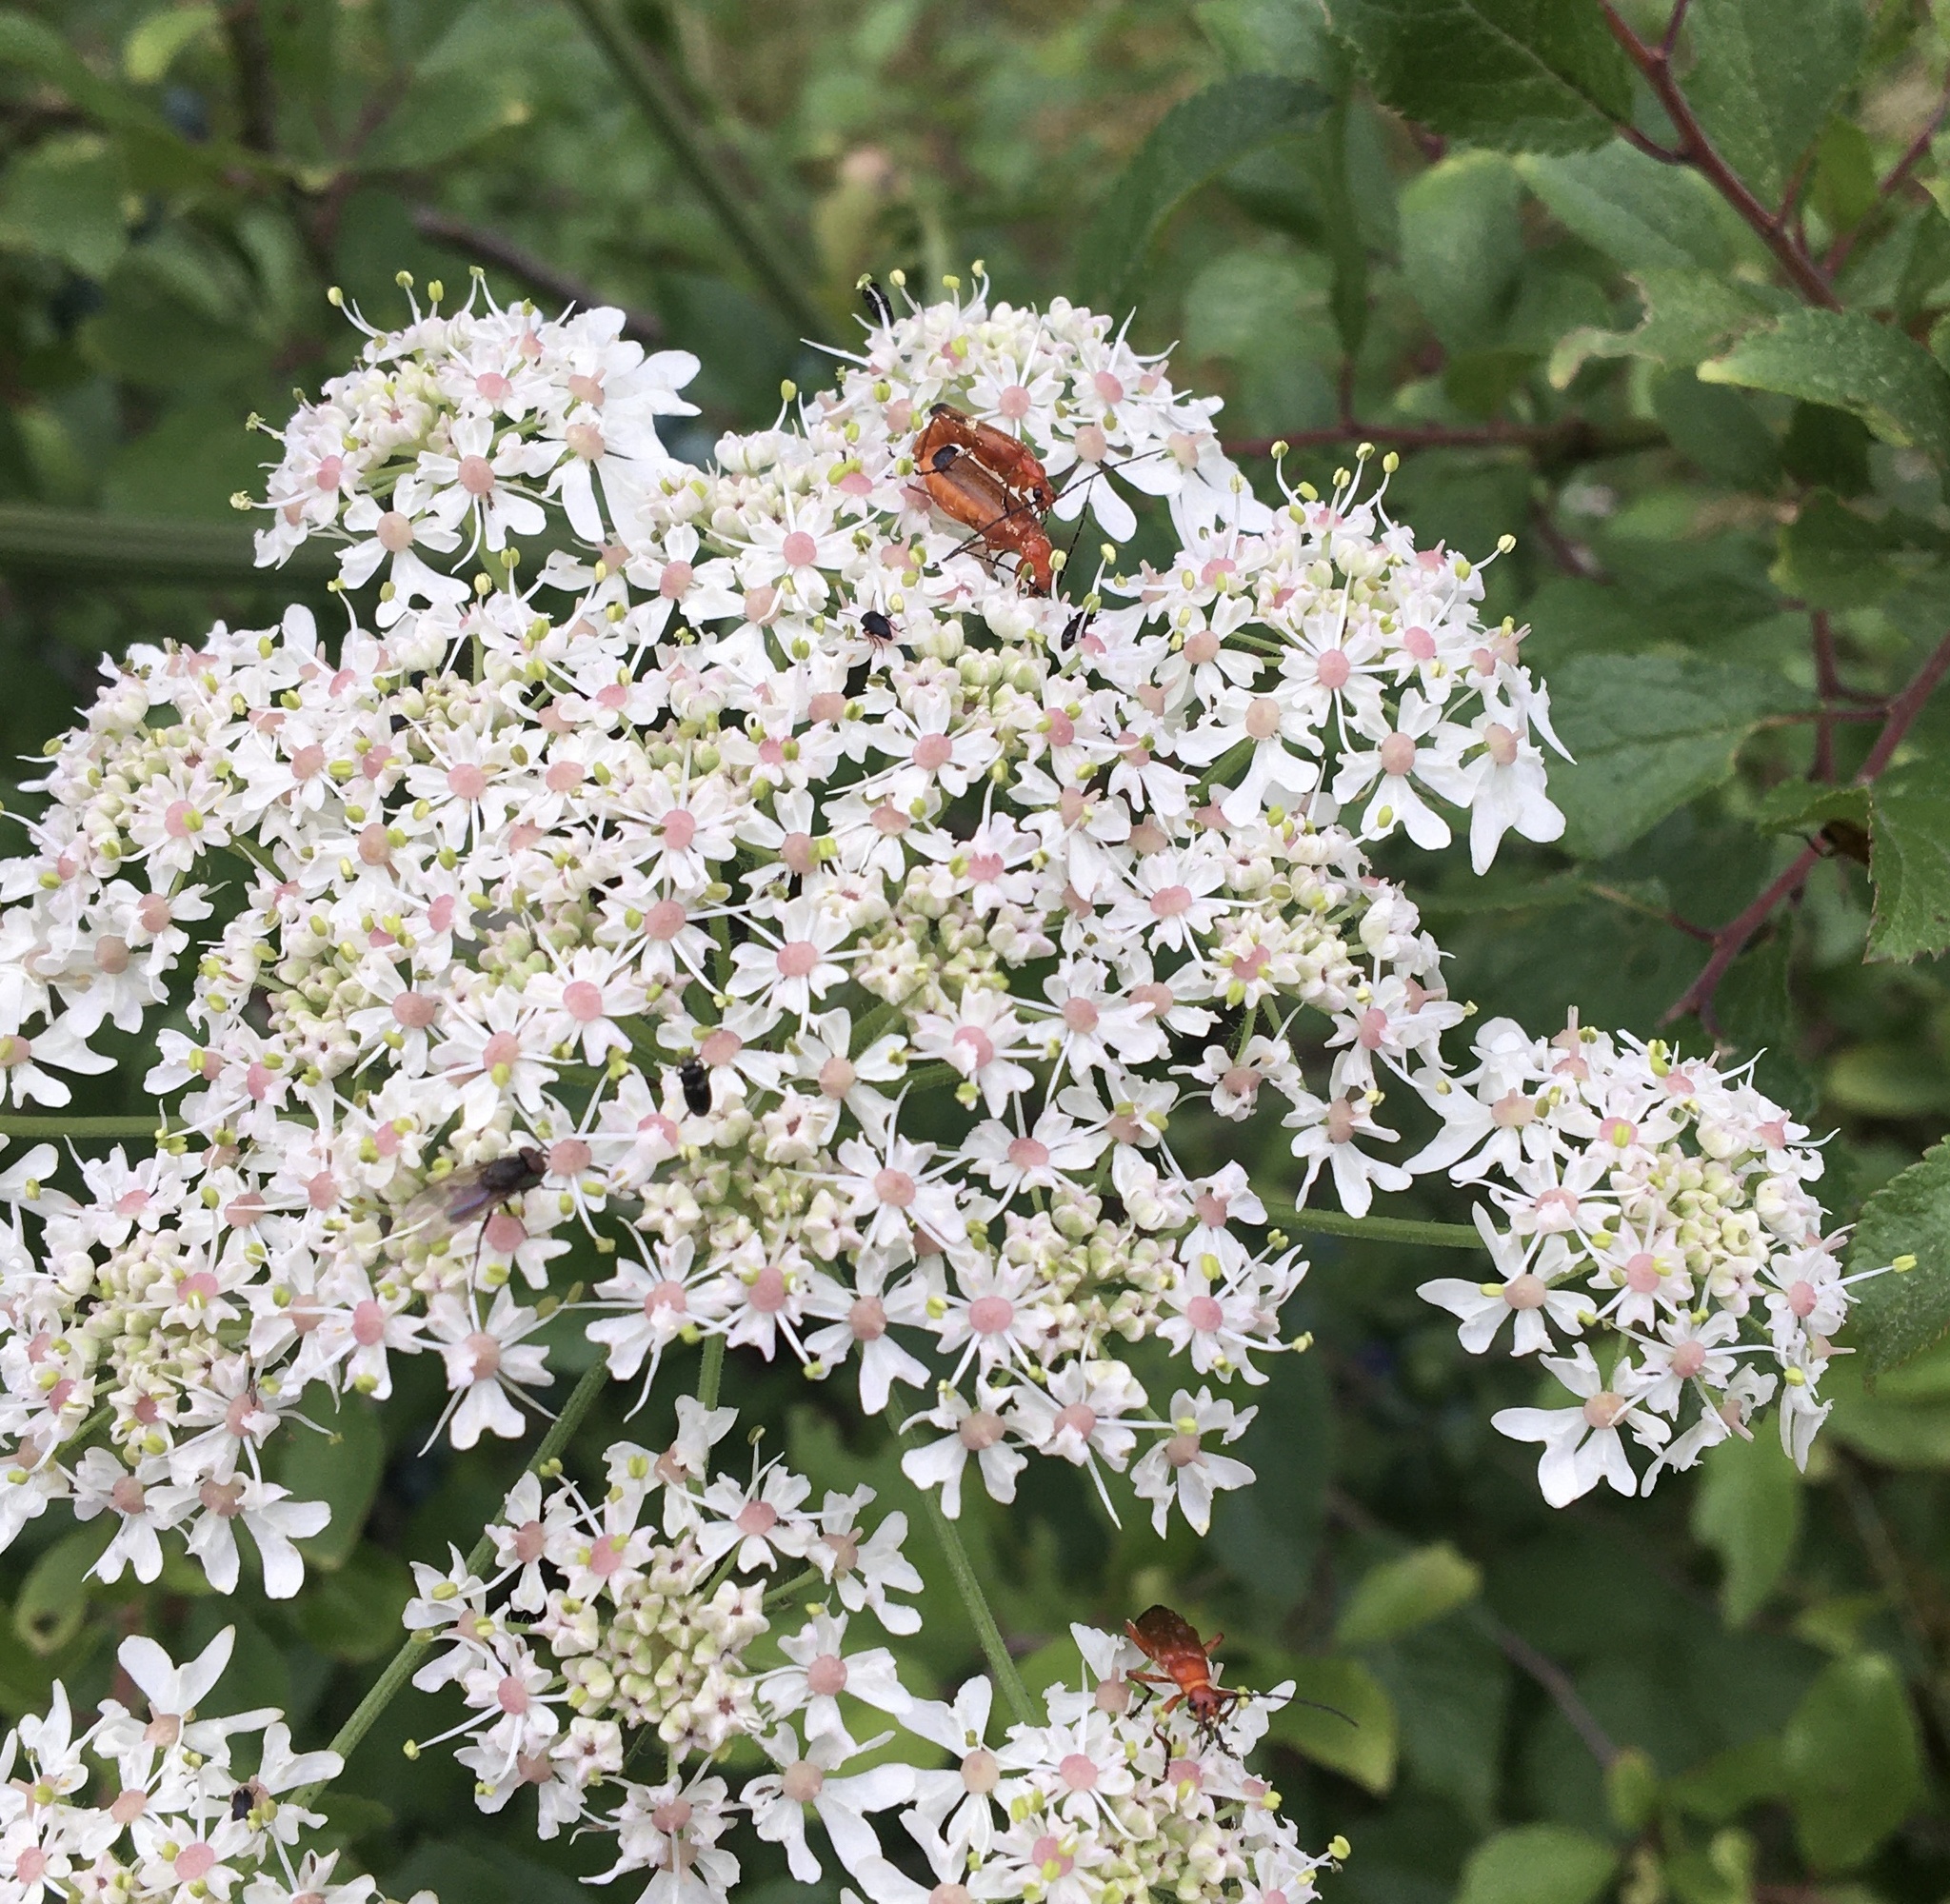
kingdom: Animalia
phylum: Arthropoda
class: Insecta
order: Coleoptera
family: Cantharidae
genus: Rhagonycha
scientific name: Rhagonycha fulva
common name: Common red soldier beetle
